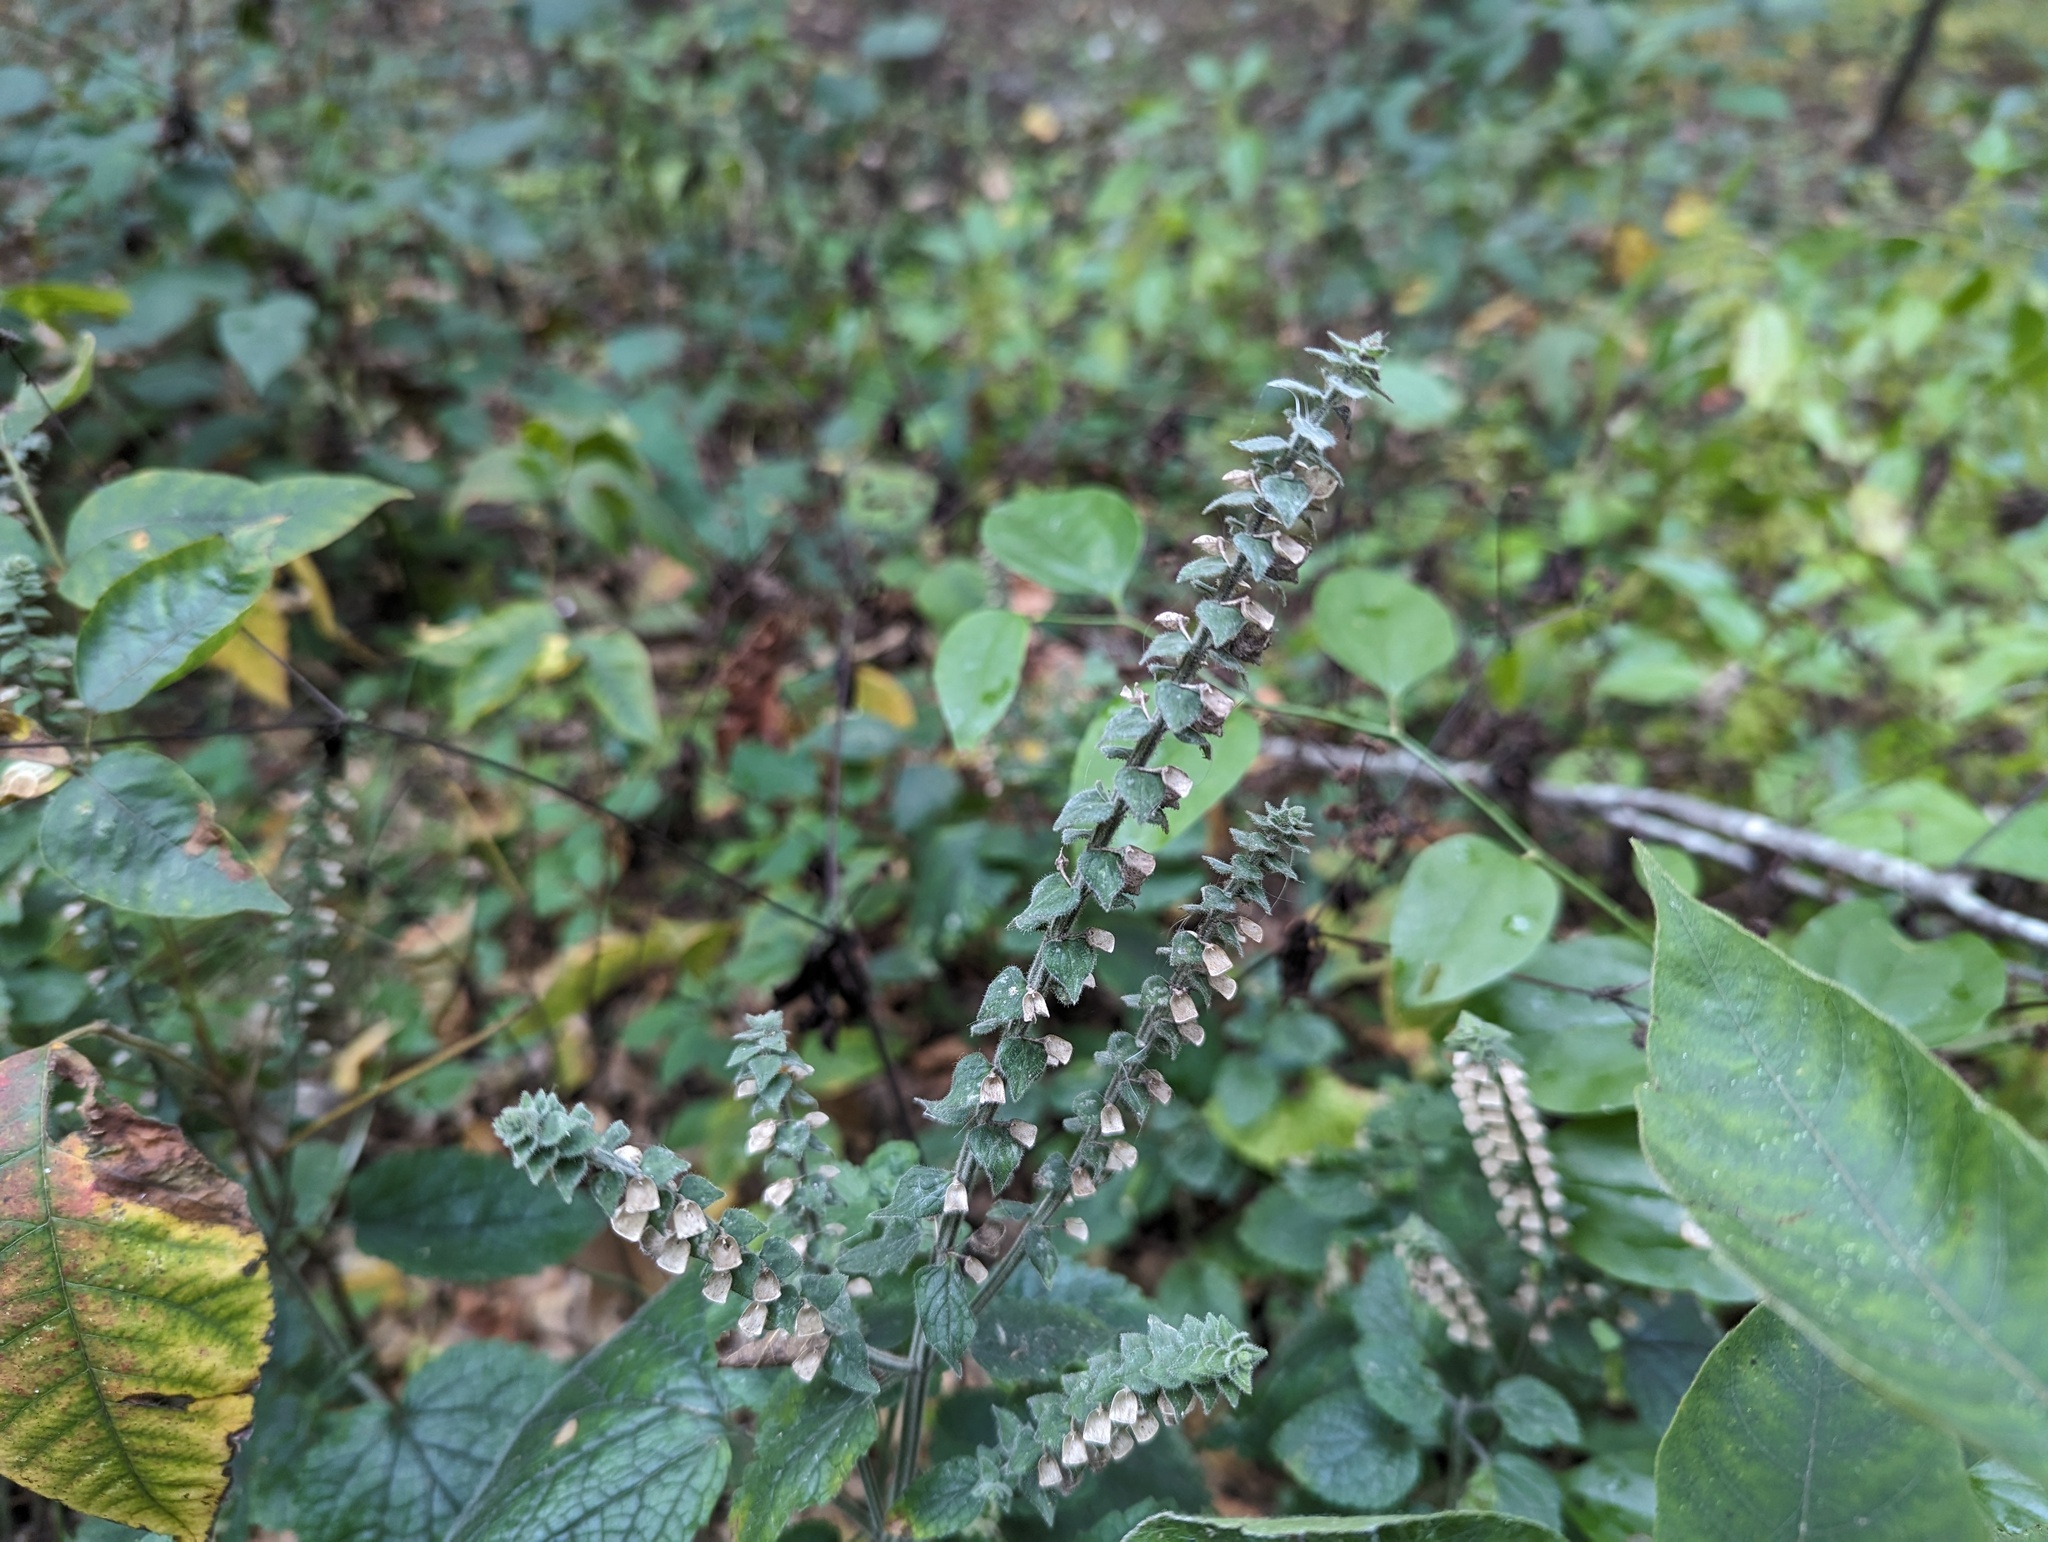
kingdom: Plantae
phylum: Tracheophyta
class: Magnoliopsida
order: Lamiales
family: Lamiaceae
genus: Scutellaria
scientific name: Scutellaria ovata
